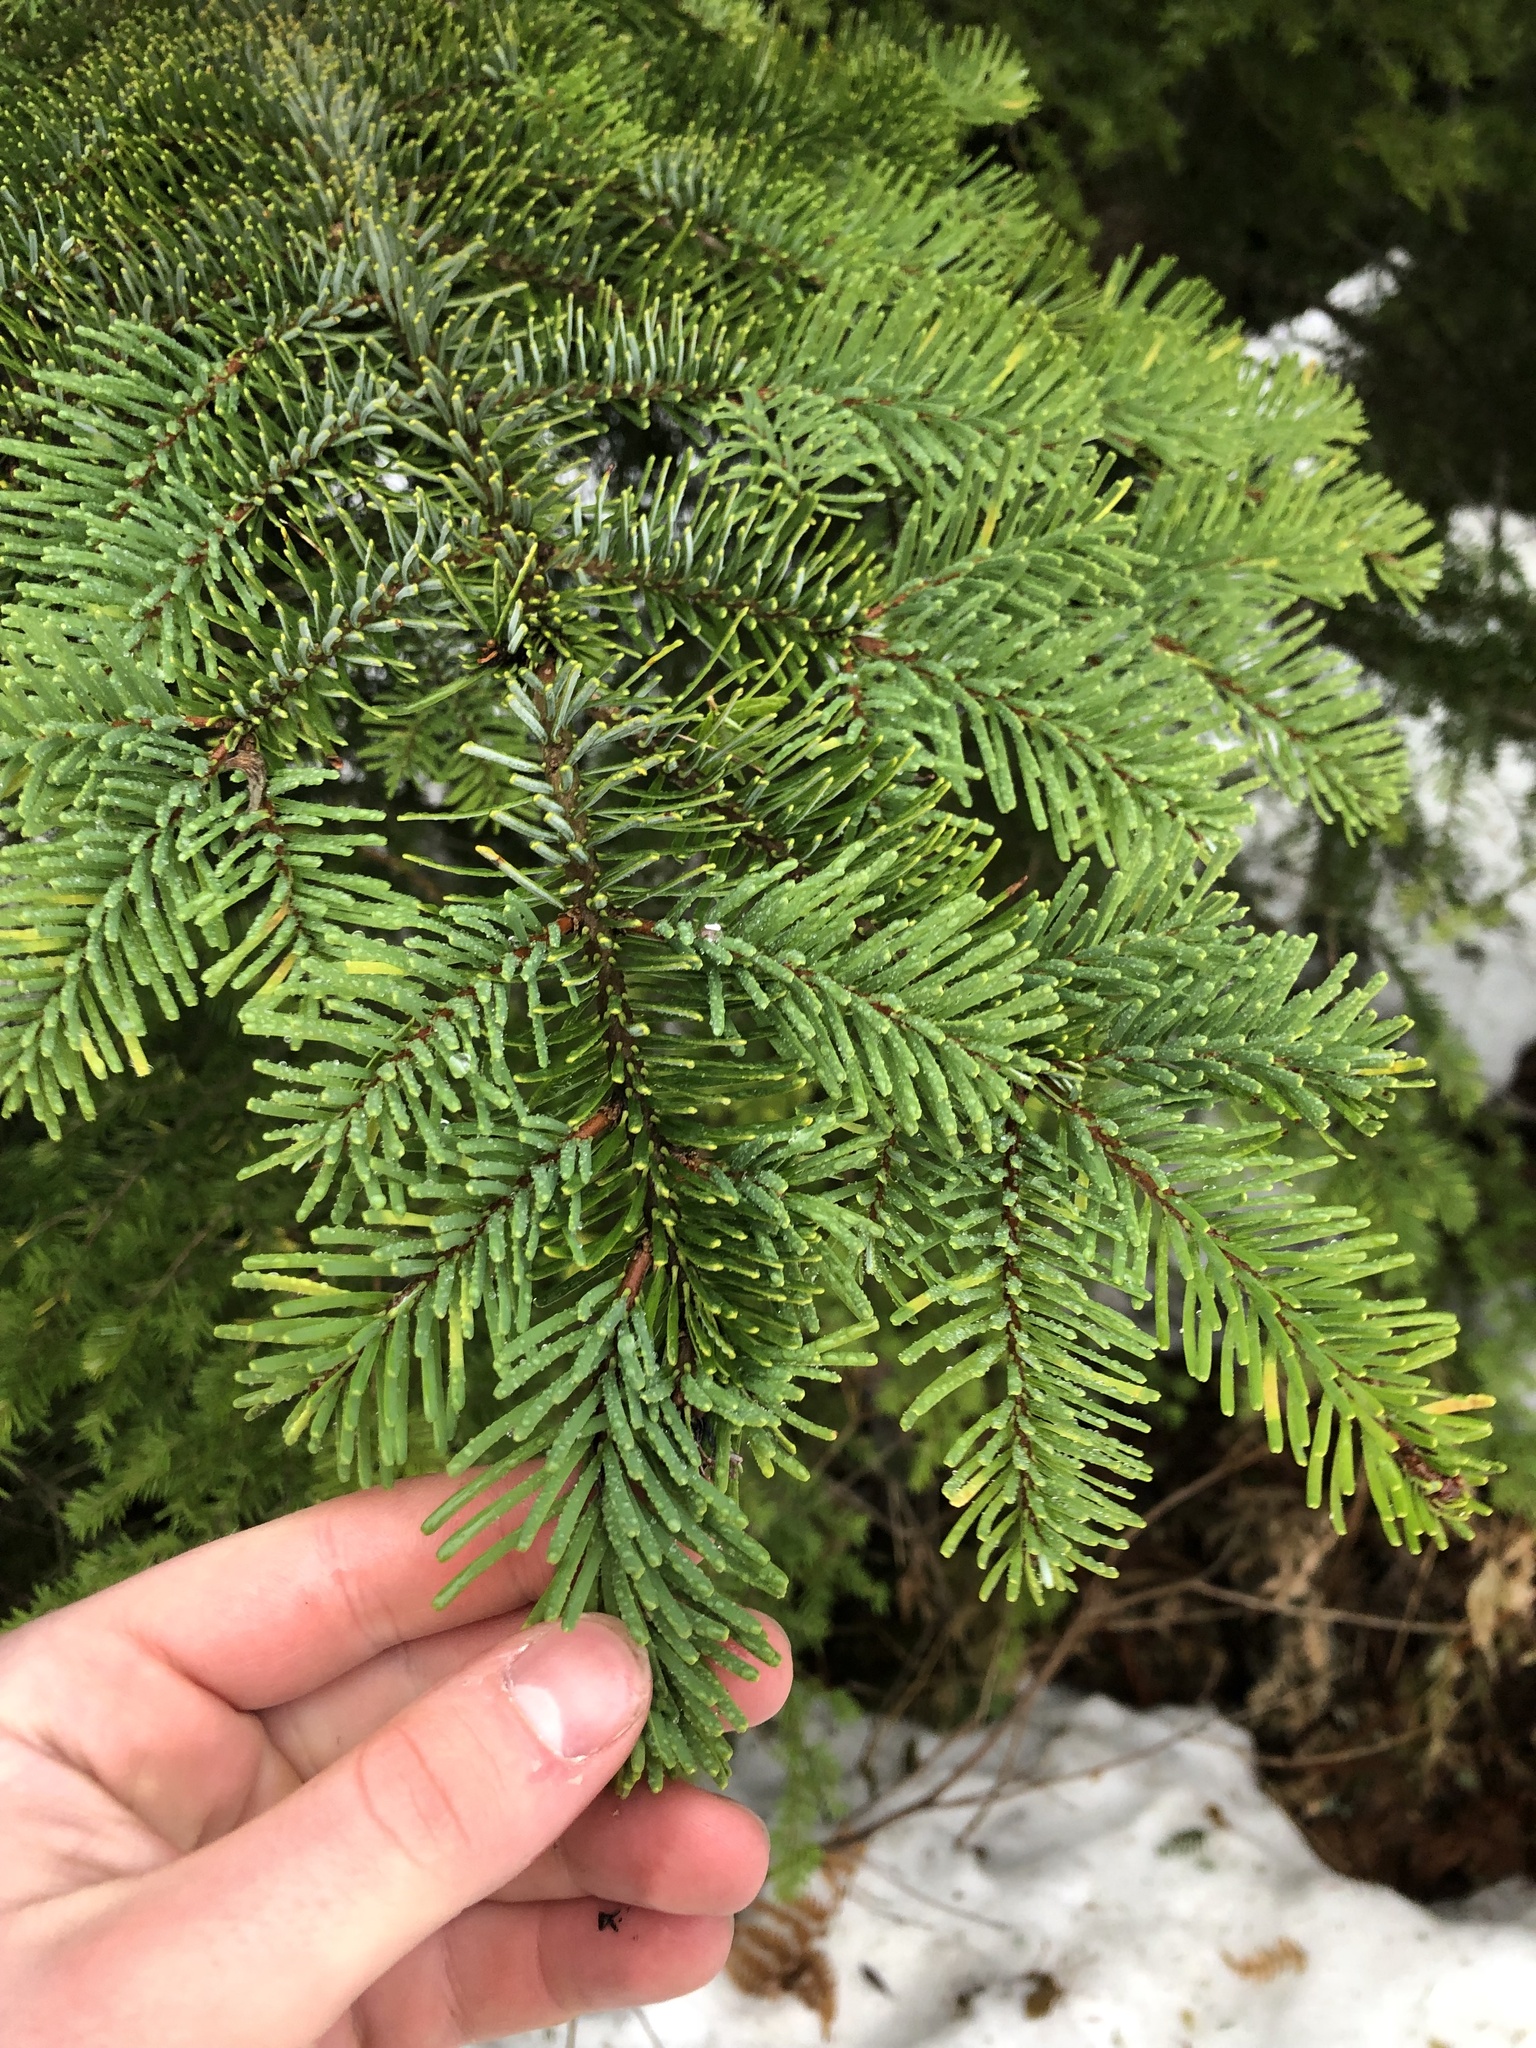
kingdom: Plantae
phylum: Tracheophyta
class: Pinopsida
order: Pinales
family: Pinaceae
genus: Abies
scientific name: Abies amabilis
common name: Pacific silver fir
